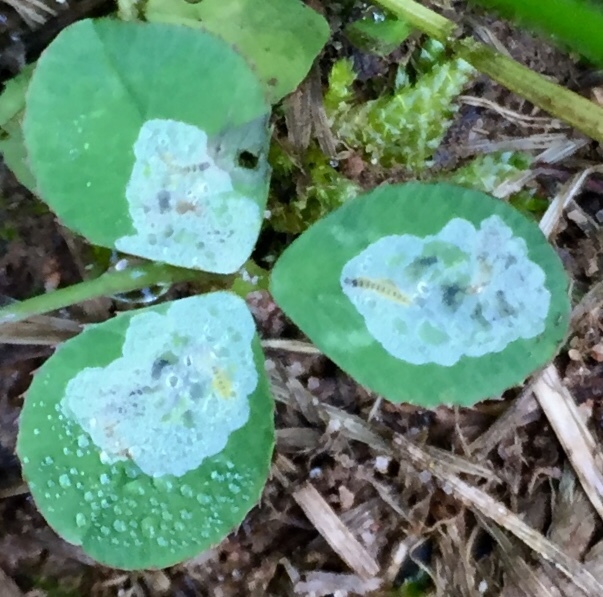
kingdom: Animalia
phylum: Arthropoda
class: Insecta
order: Lepidoptera
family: Gracillariidae
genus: Porphyrosela
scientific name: Porphyrosela minuta
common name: Leaf miner moth
